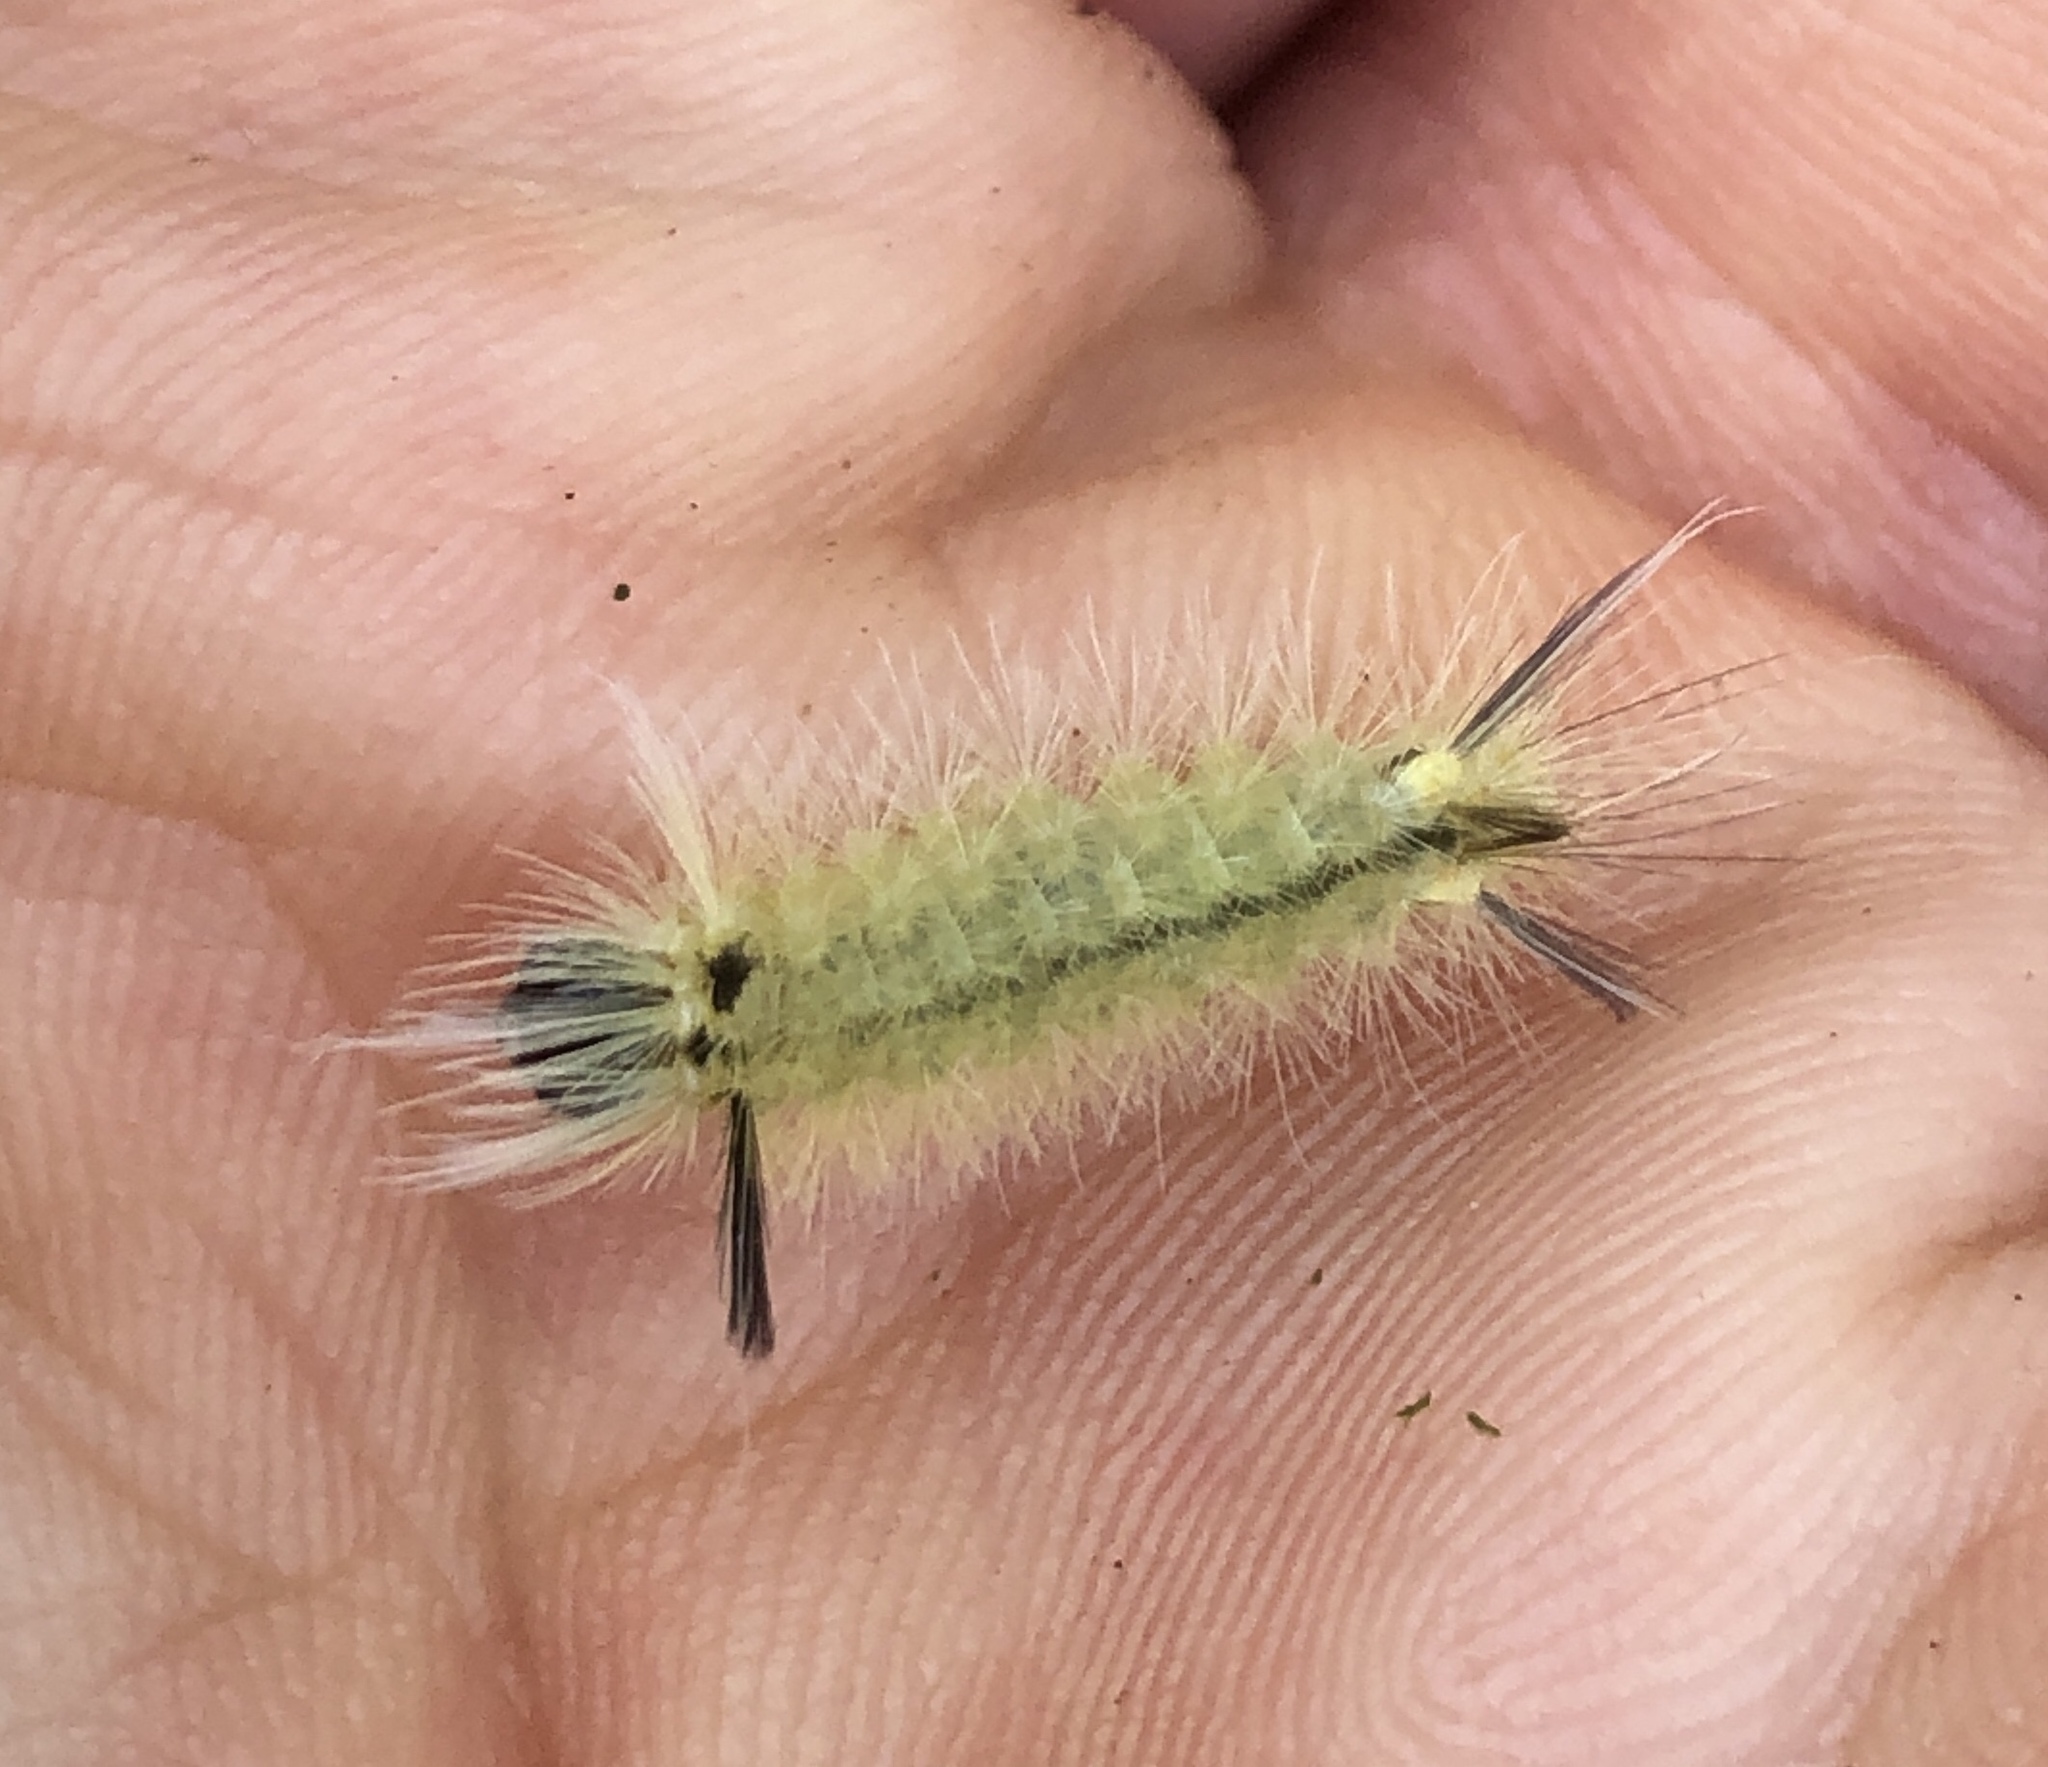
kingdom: Animalia
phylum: Arthropoda
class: Insecta
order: Lepidoptera
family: Erebidae
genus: Halysidota
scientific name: Halysidota tessellaris
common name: Banded tussock moth
